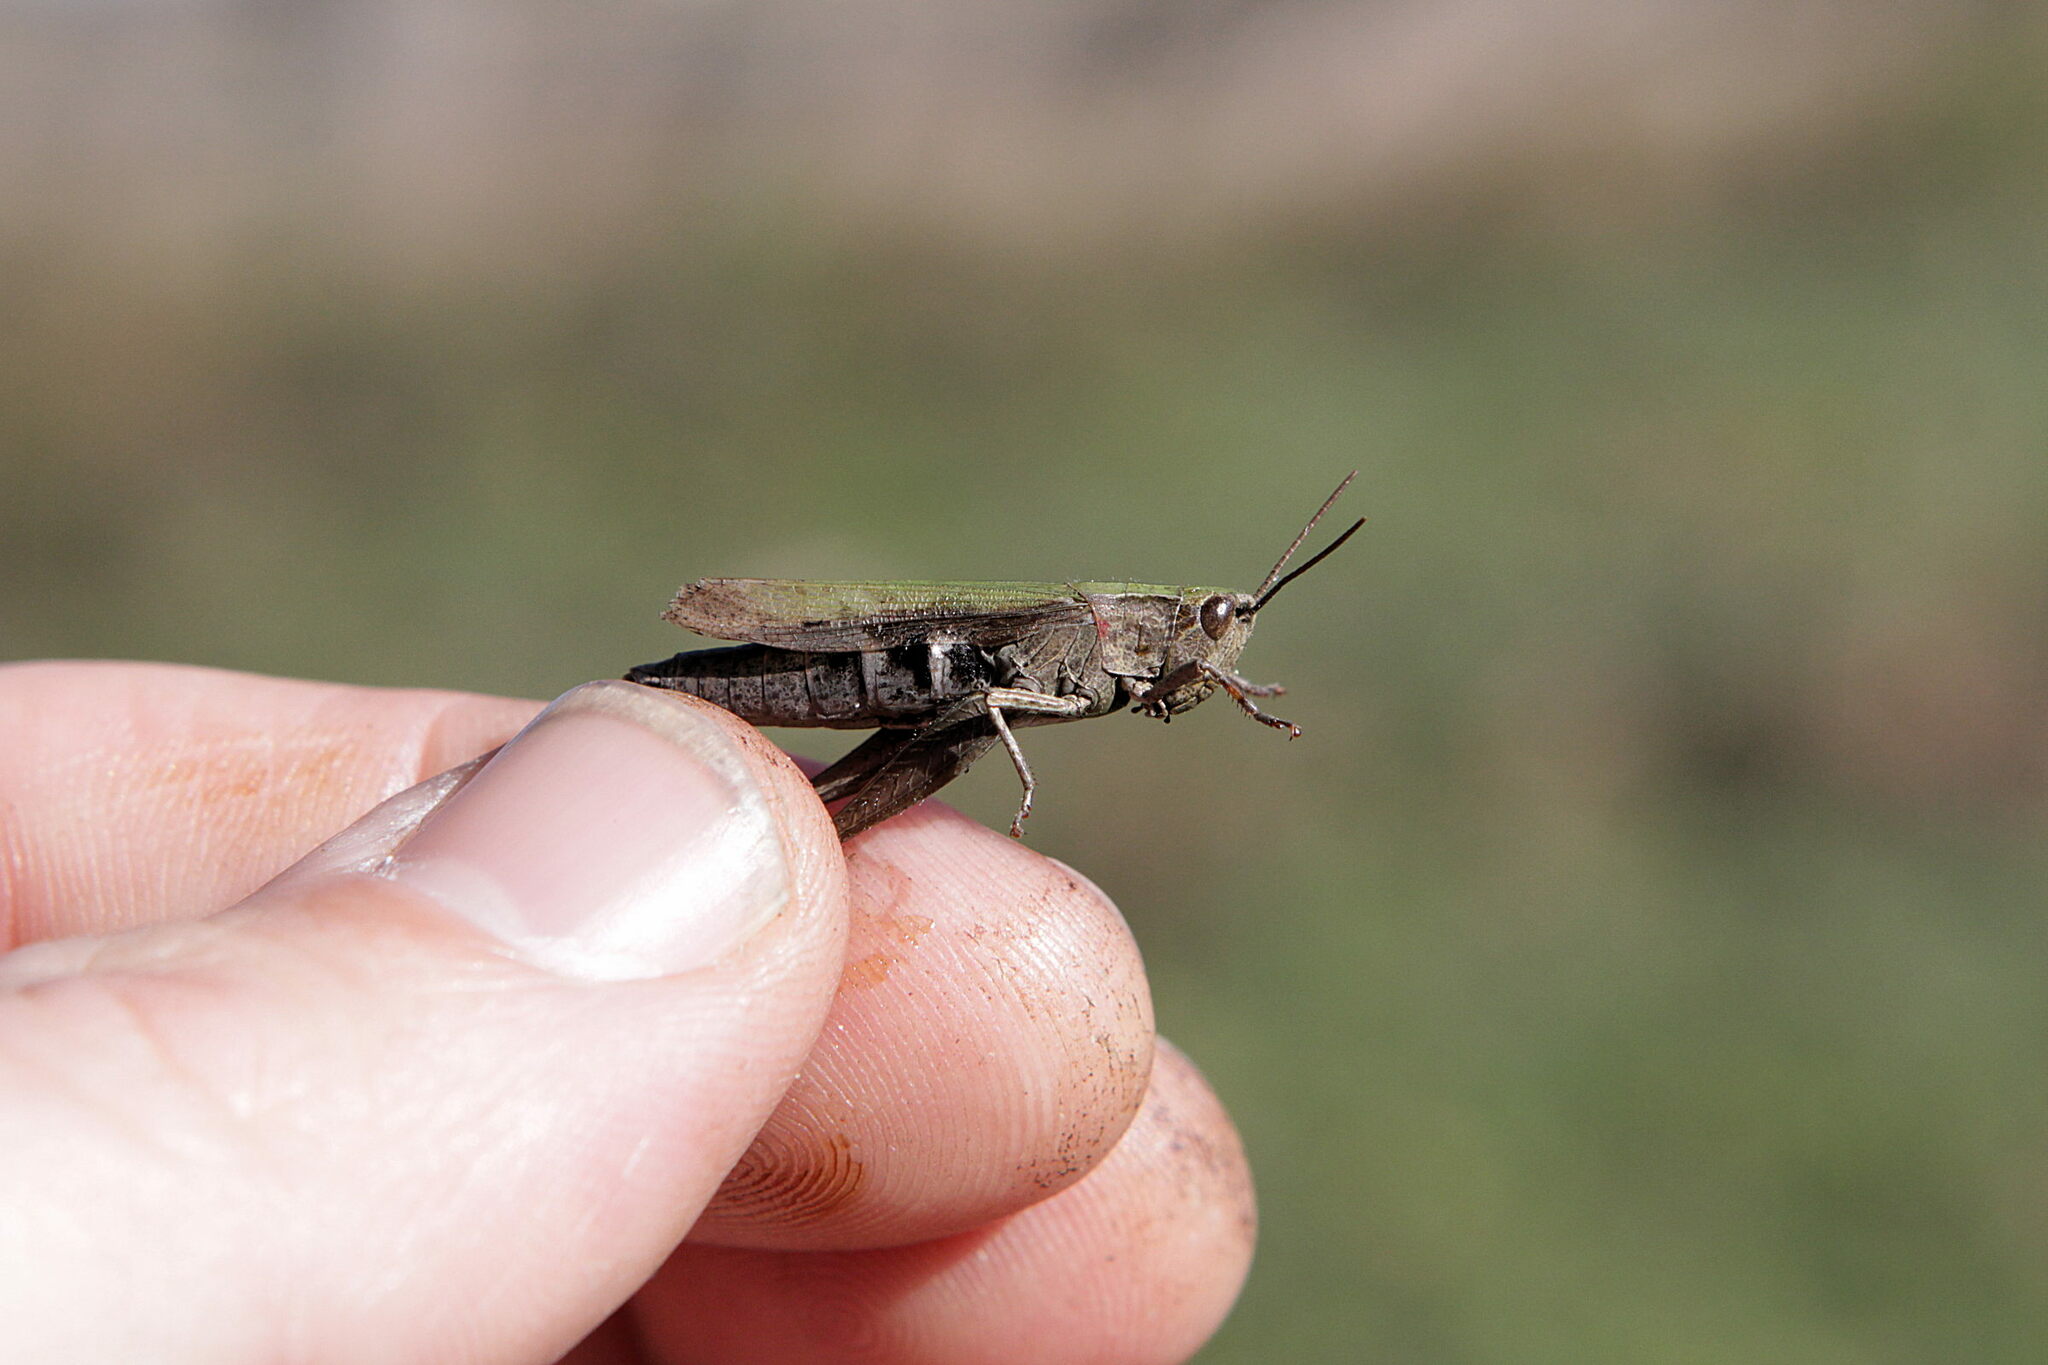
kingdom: Animalia
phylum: Arthropoda
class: Insecta
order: Orthoptera
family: Acrididae
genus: Chorthippus
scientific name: Chorthippus dorsatus
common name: Steppe grasshopper
